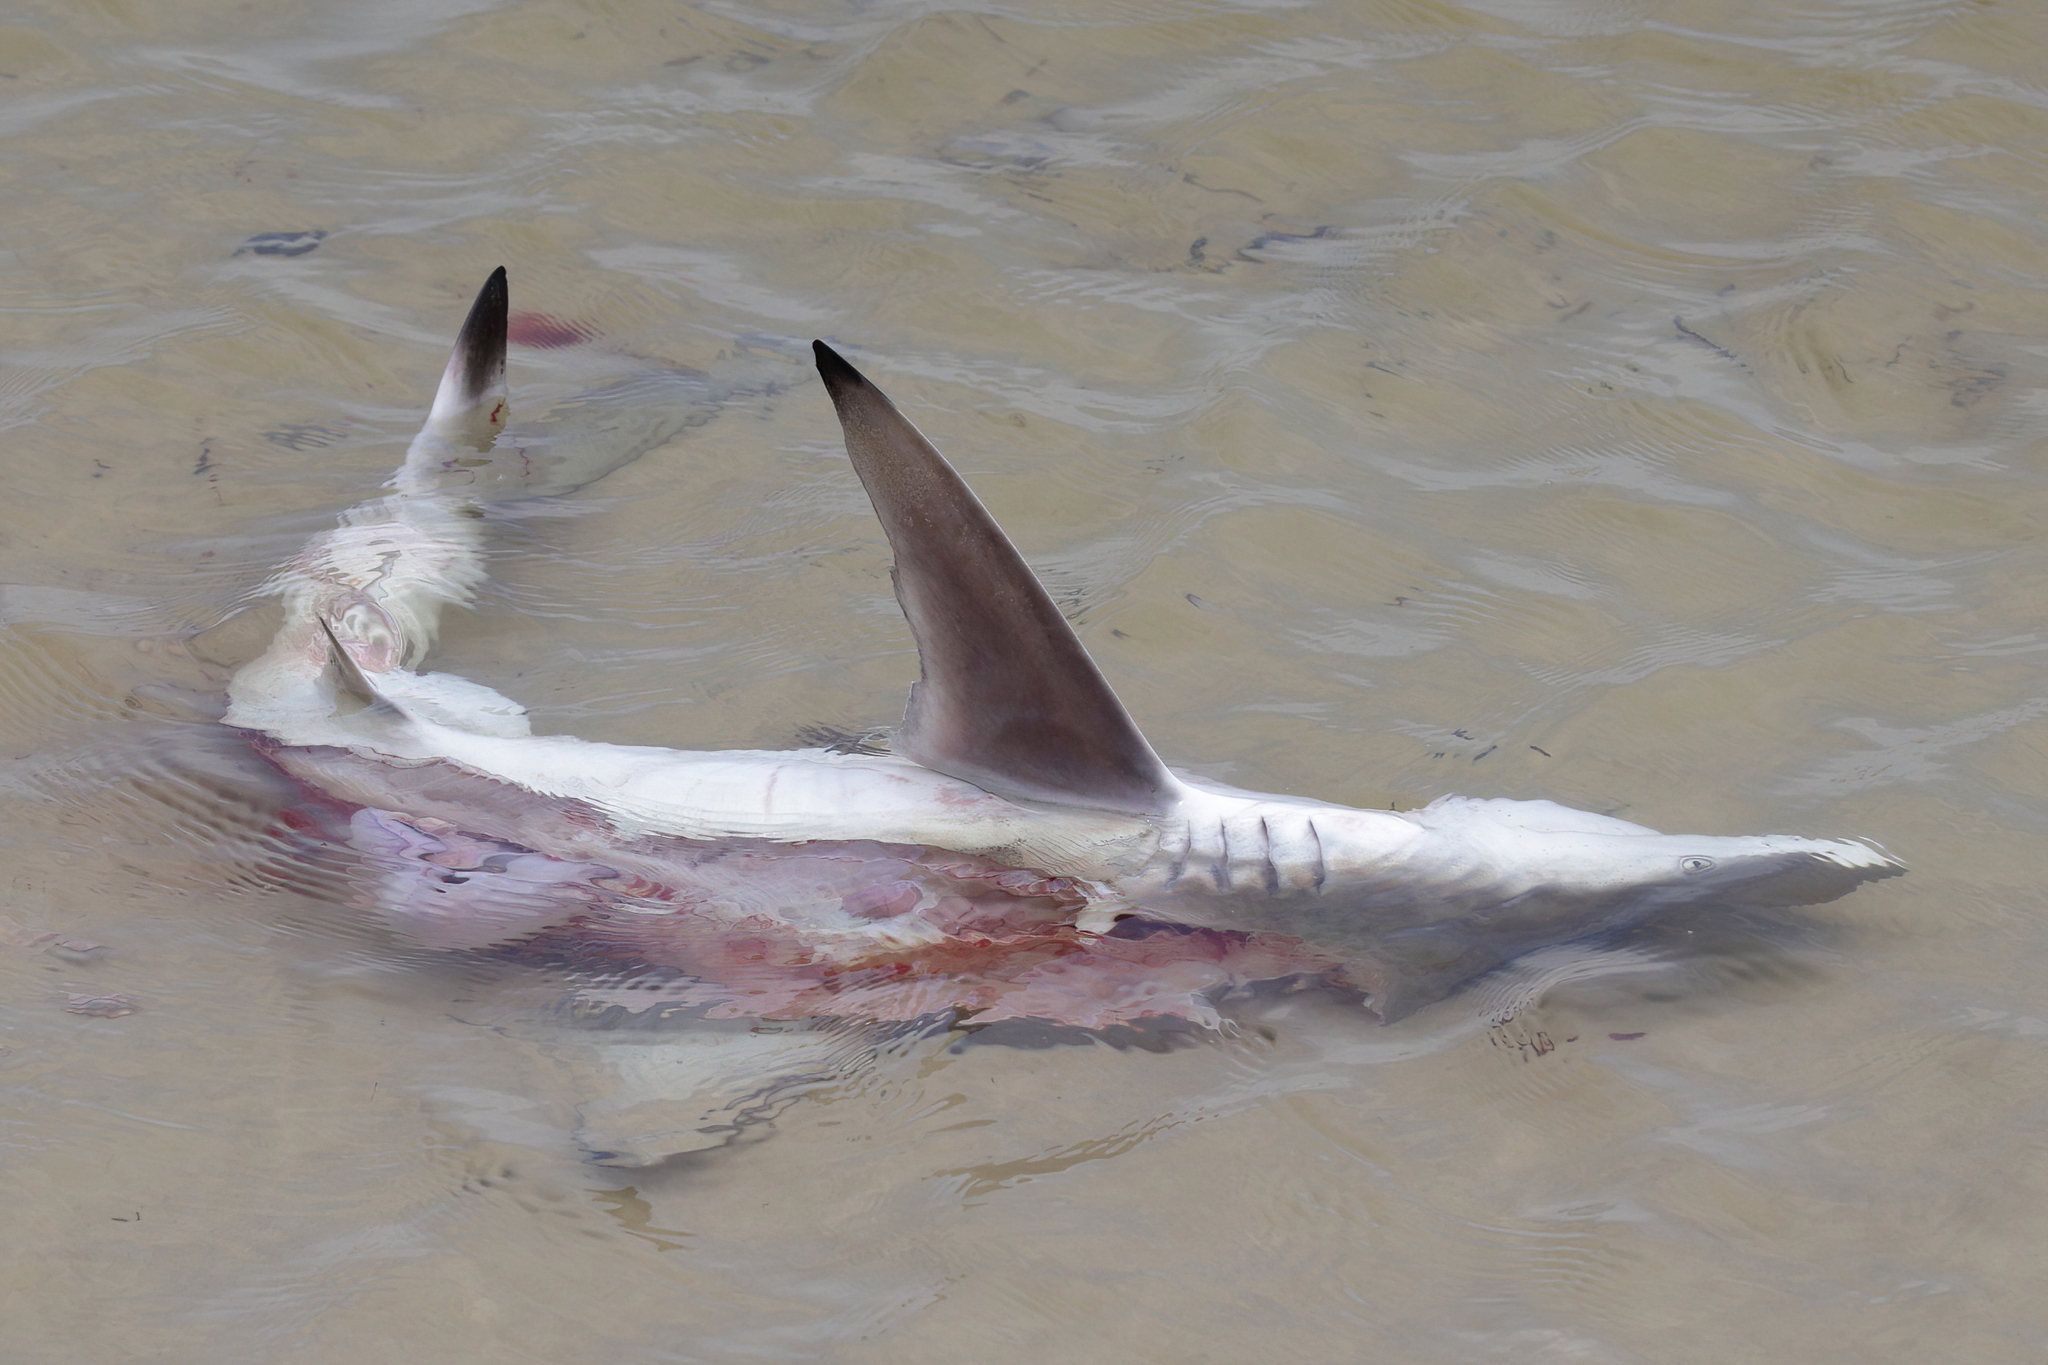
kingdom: Animalia
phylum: Chordata
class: Elasmobranchii
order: Carcharhiniformes
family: Carcharhinidae
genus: Carcharhinus
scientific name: Carcharhinus limbatus
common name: Blacktip shark
